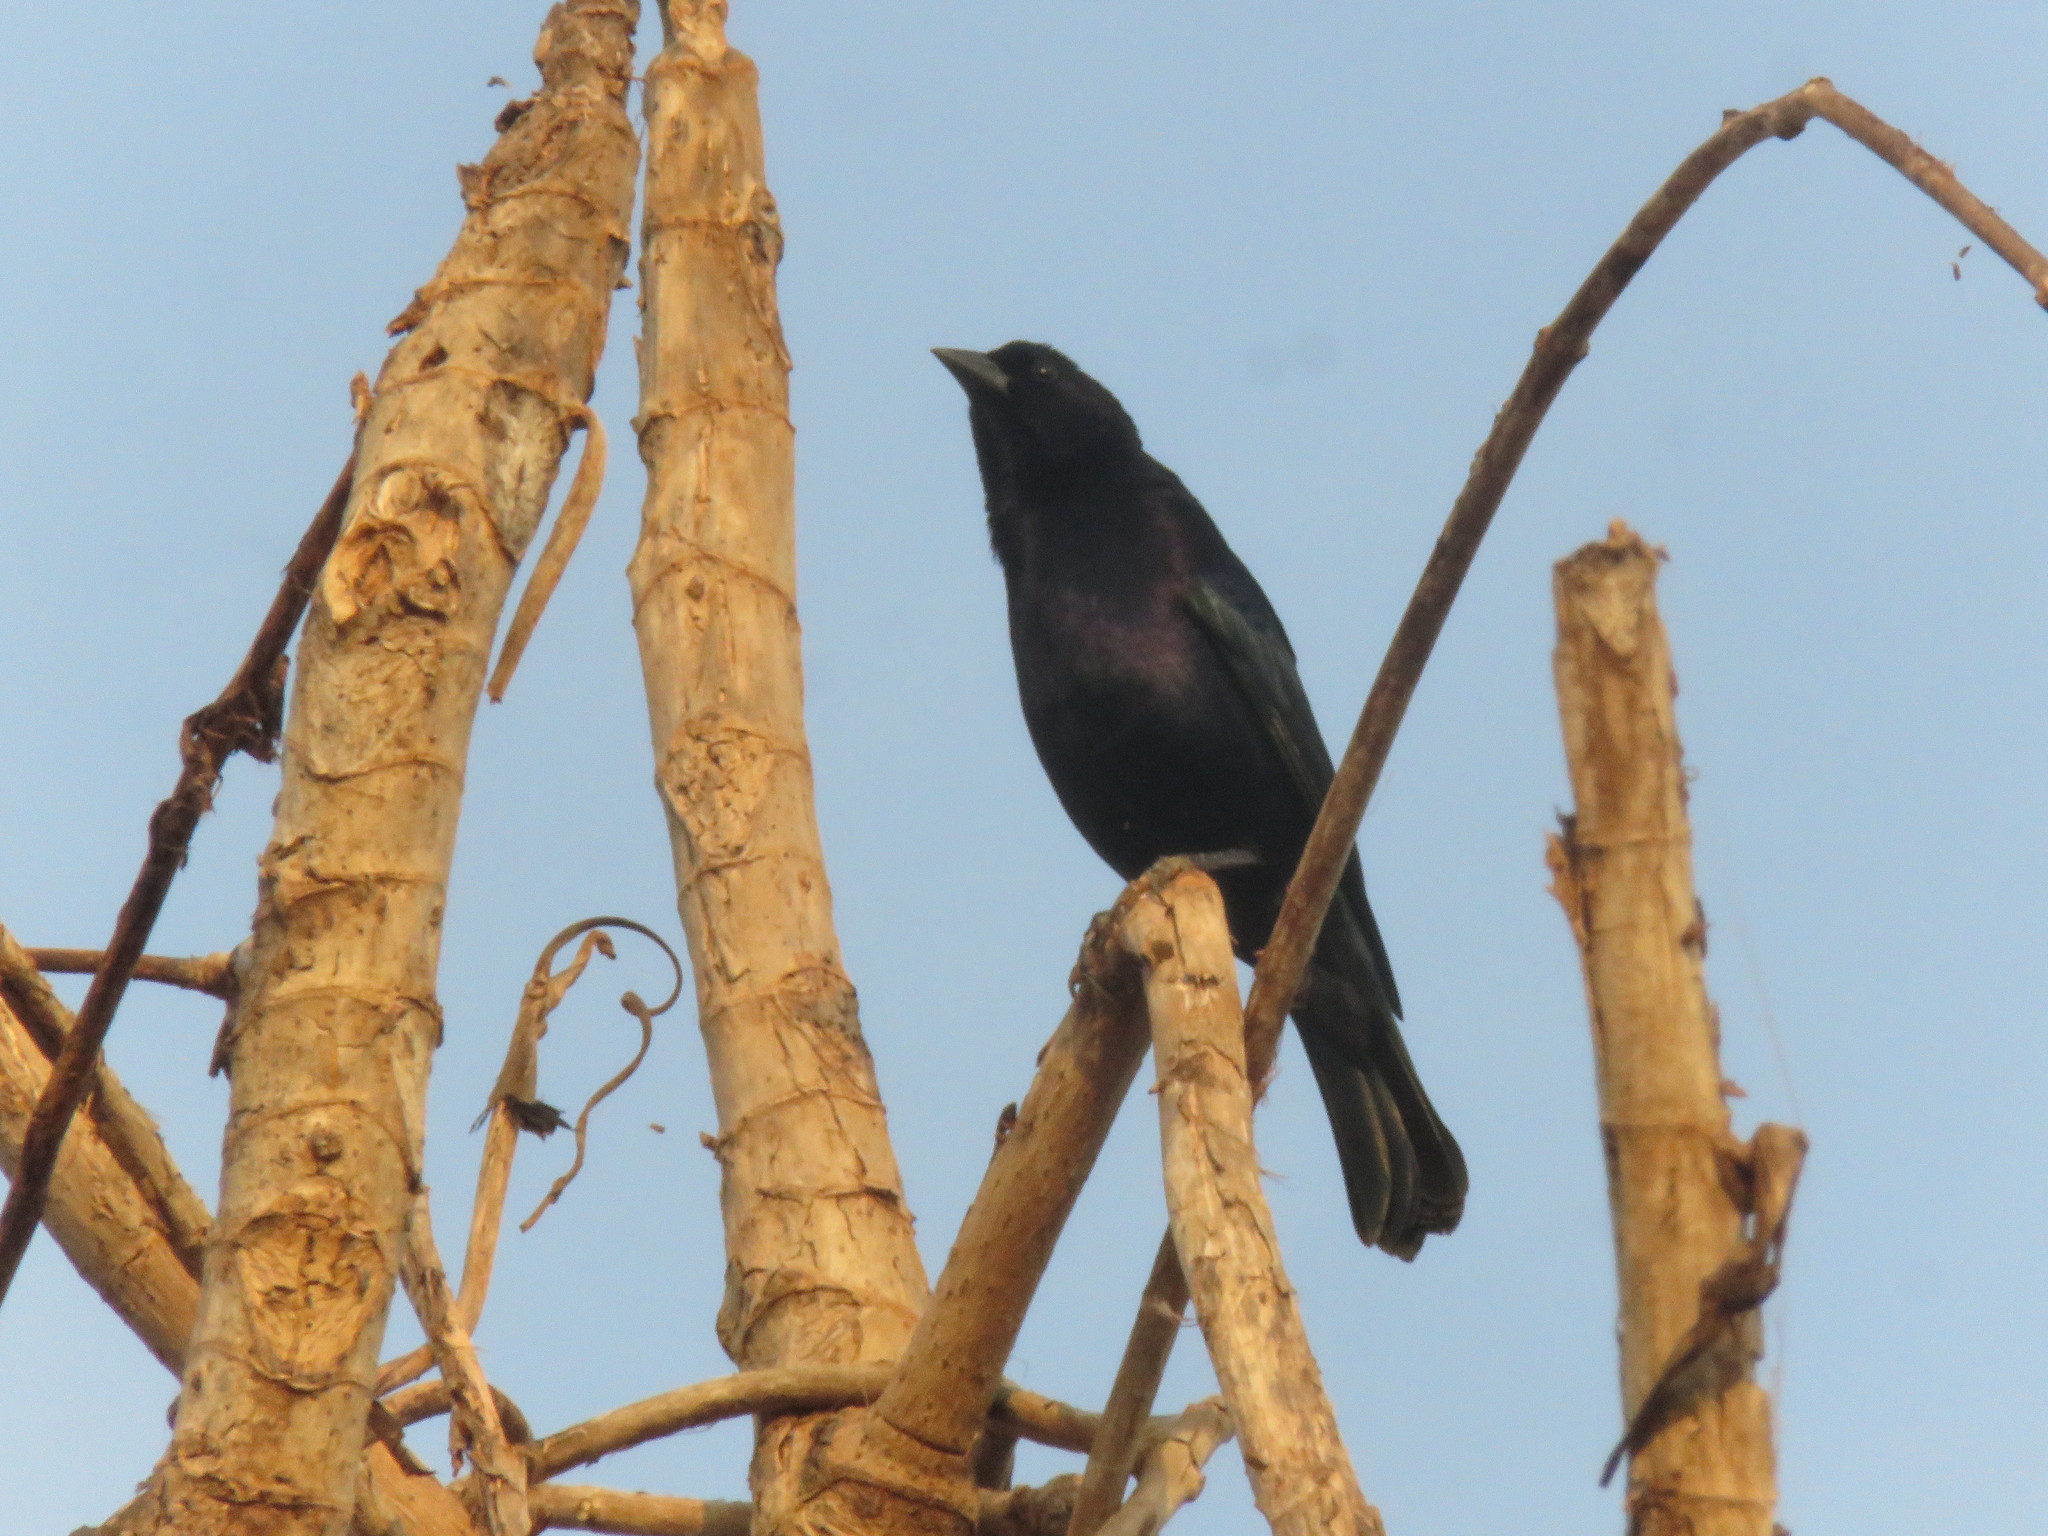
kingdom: Animalia
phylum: Chordata
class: Aves
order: Passeriformes
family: Icteridae
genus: Molothrus
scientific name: Molothrus bonariensis
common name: Shiny cowbird
